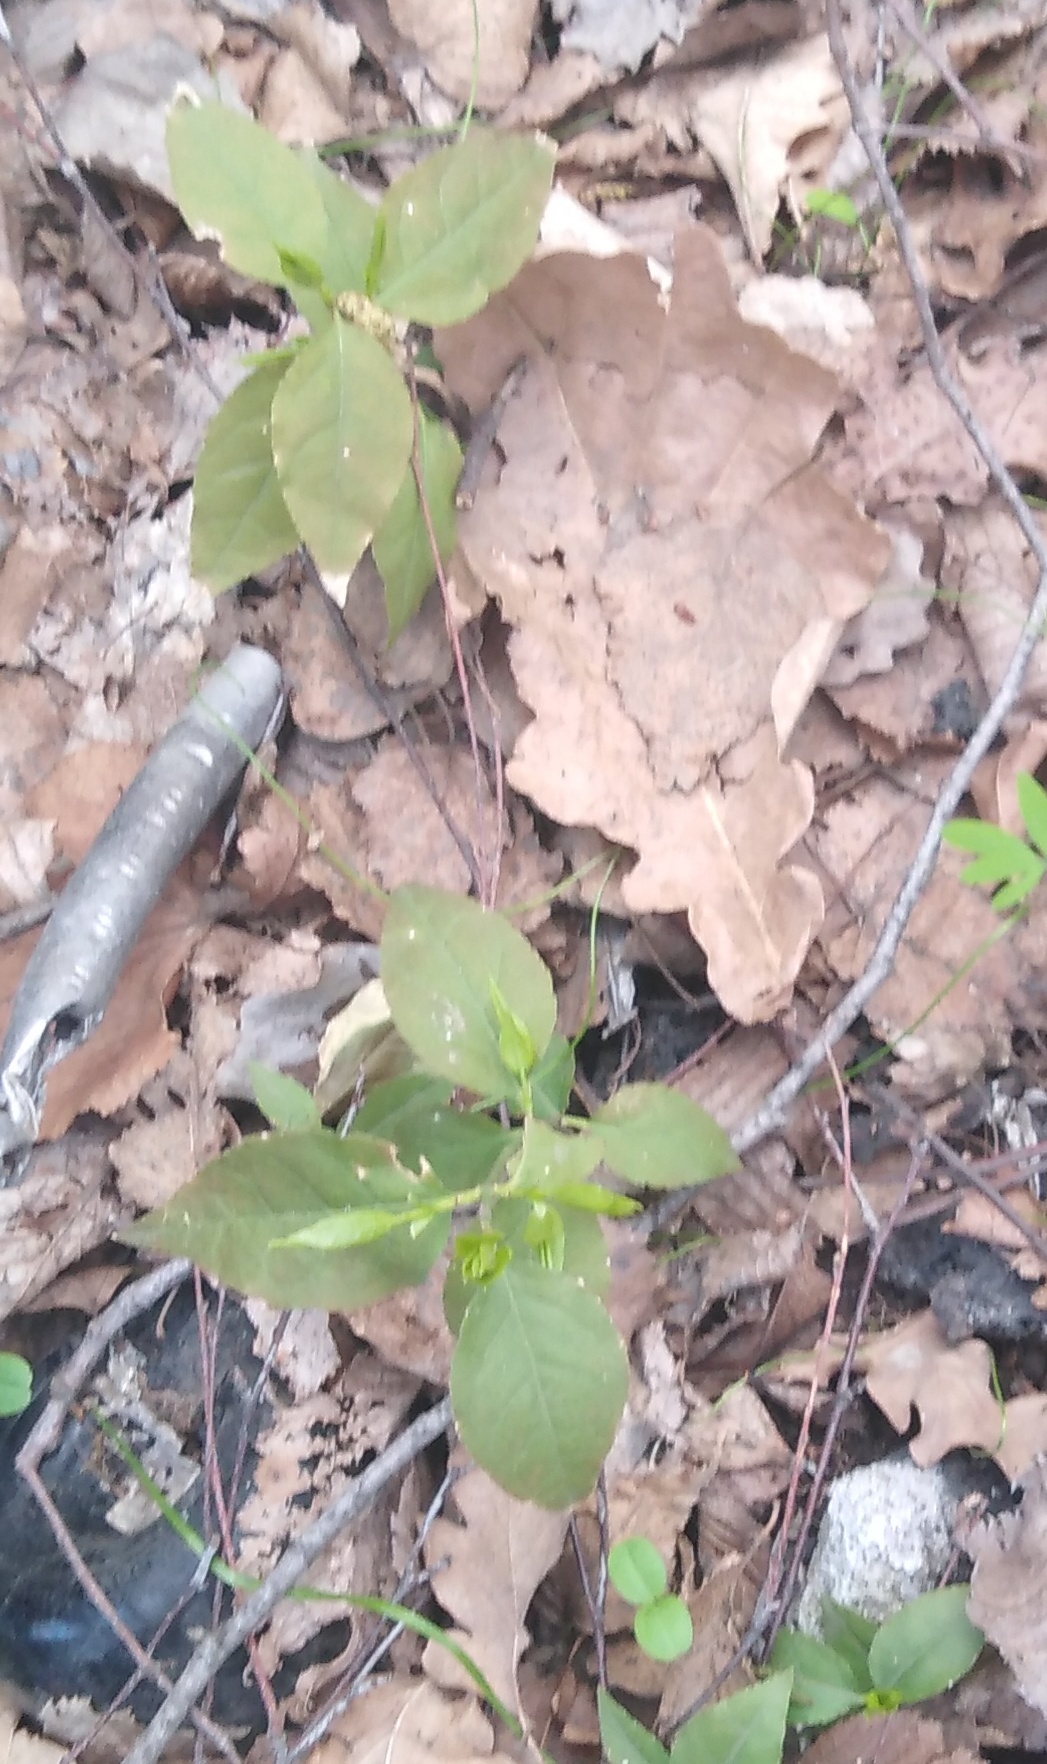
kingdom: Plantae
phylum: Tracheophyta
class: Magnoliopsida
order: Malpighiales
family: Euphorbiaceae
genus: Mercurialis
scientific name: Mercurialis perennis
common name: Dog mercury
